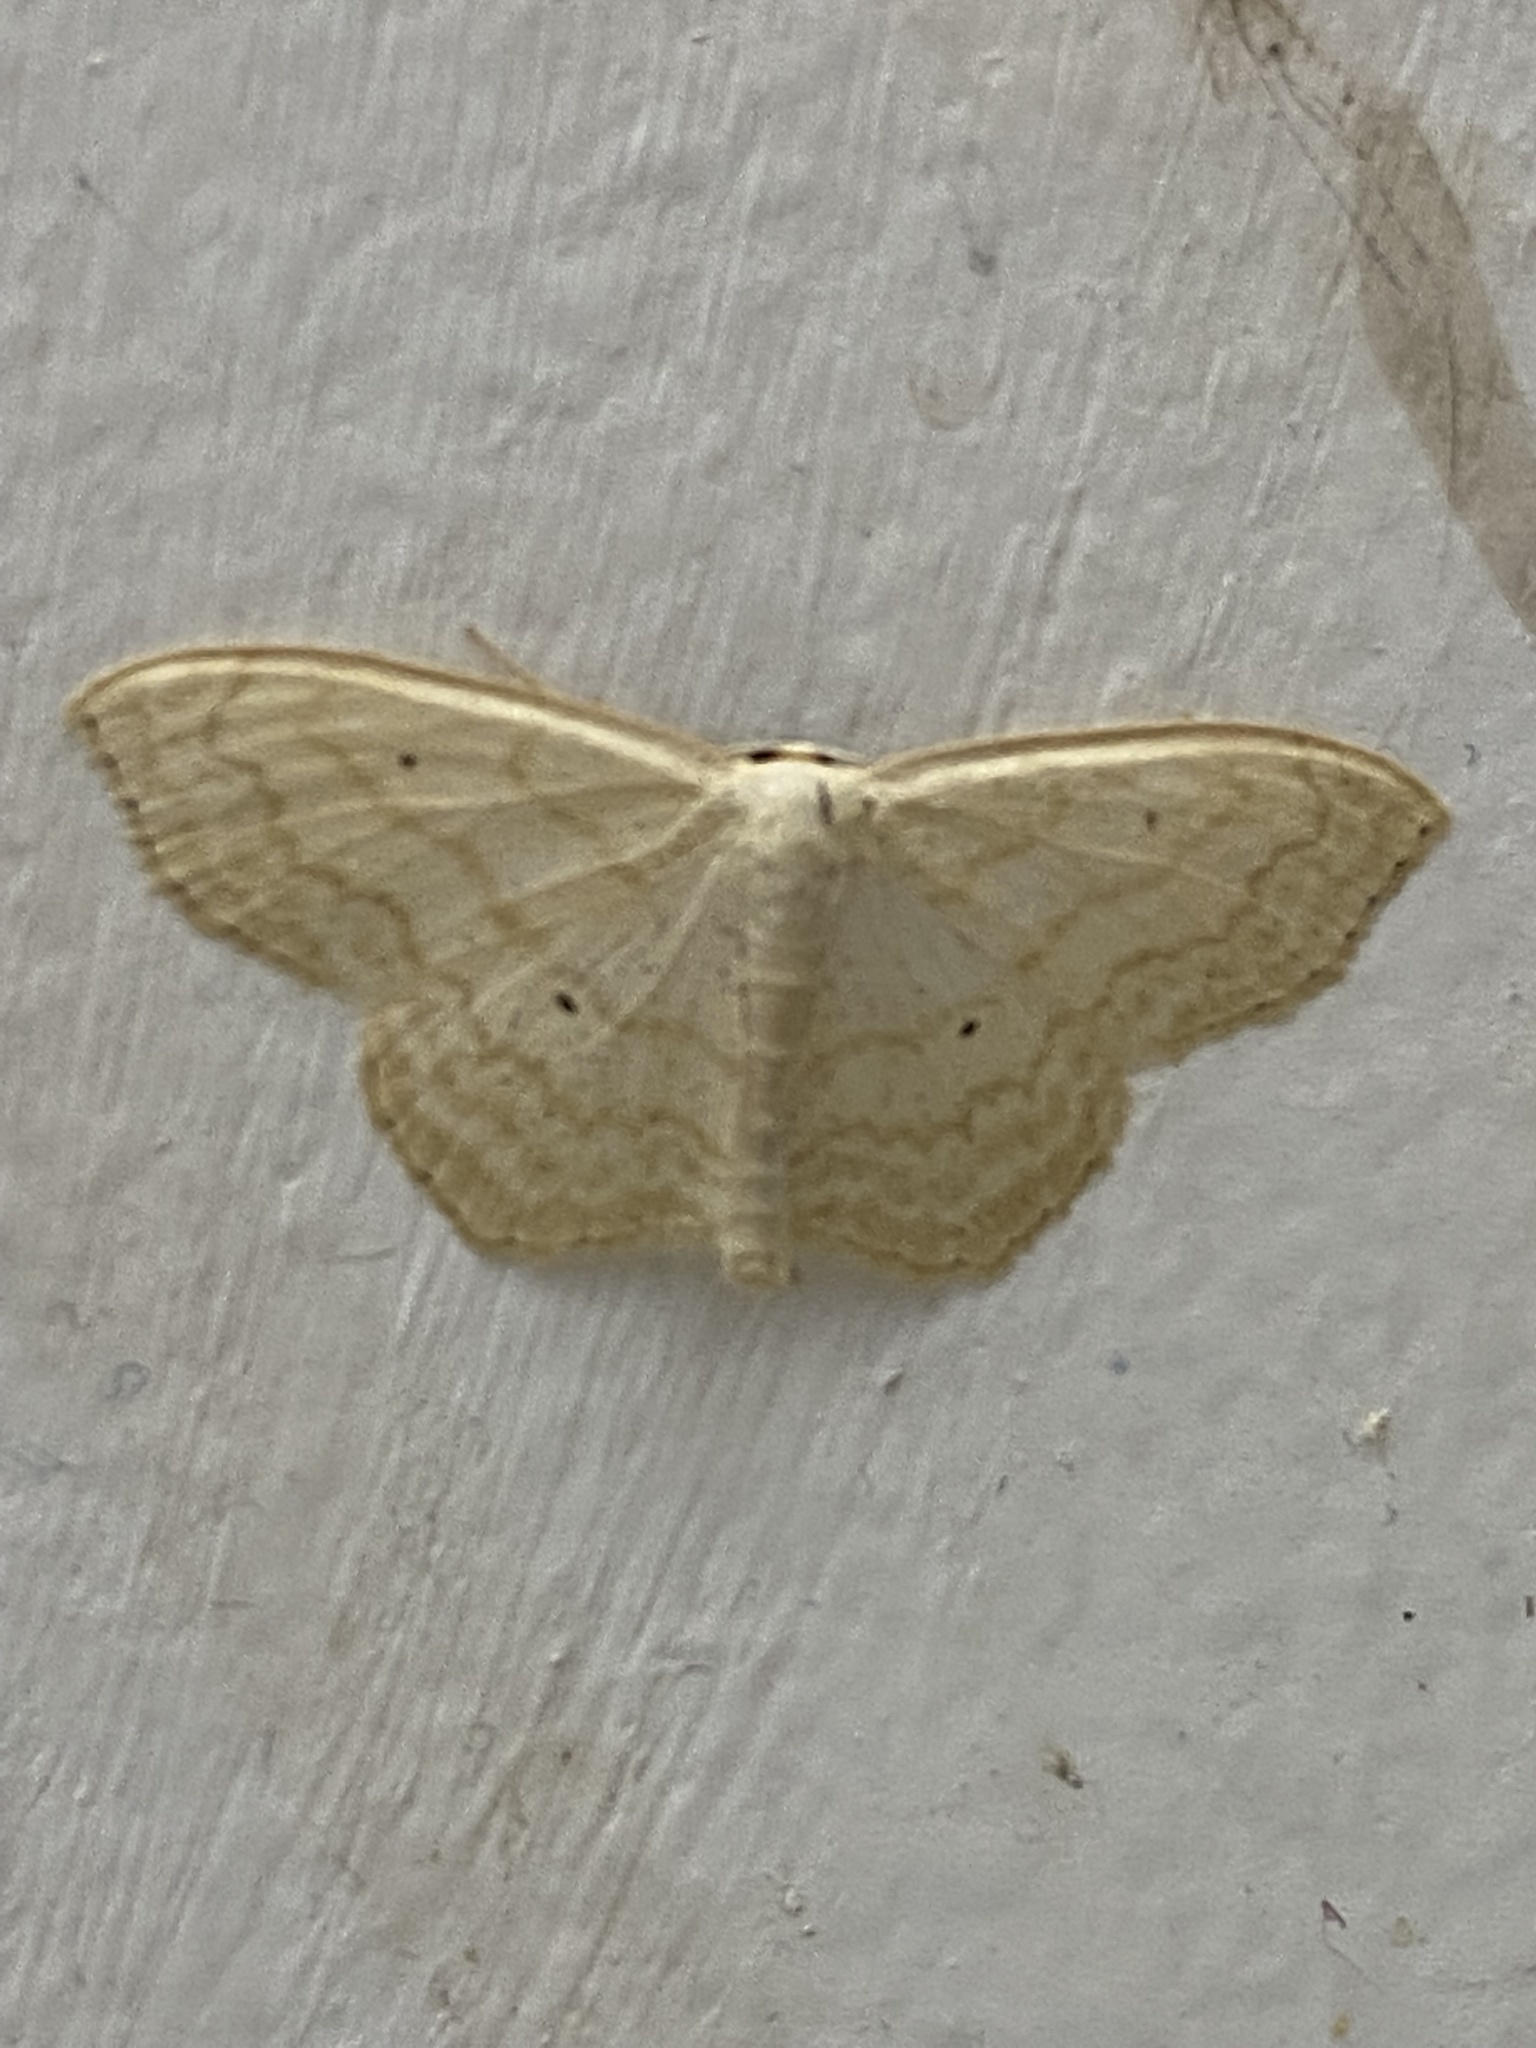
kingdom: Animalia
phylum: Arthropoda
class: Insecta
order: Lepidoptera
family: Geometridae
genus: Scopula
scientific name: Scopula limboundata
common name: Large lace border
